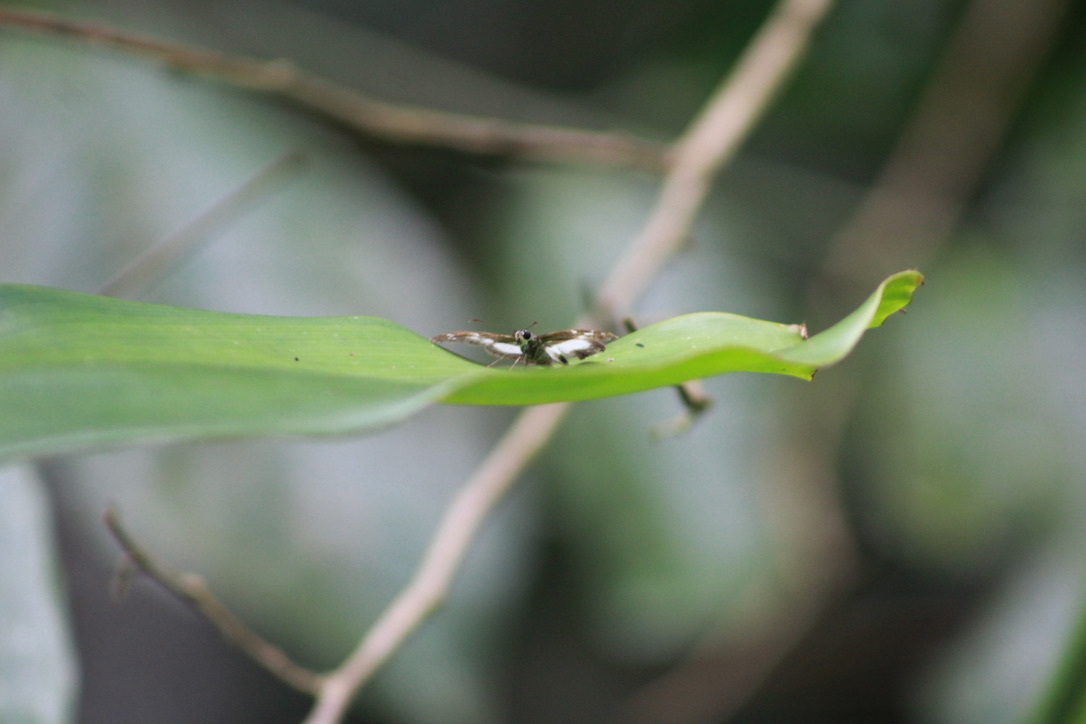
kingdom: Animalia
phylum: Arthropoda
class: Insecta
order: Lepidoptera
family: Hesperiidae
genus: Milanion
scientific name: Milanion hemes
